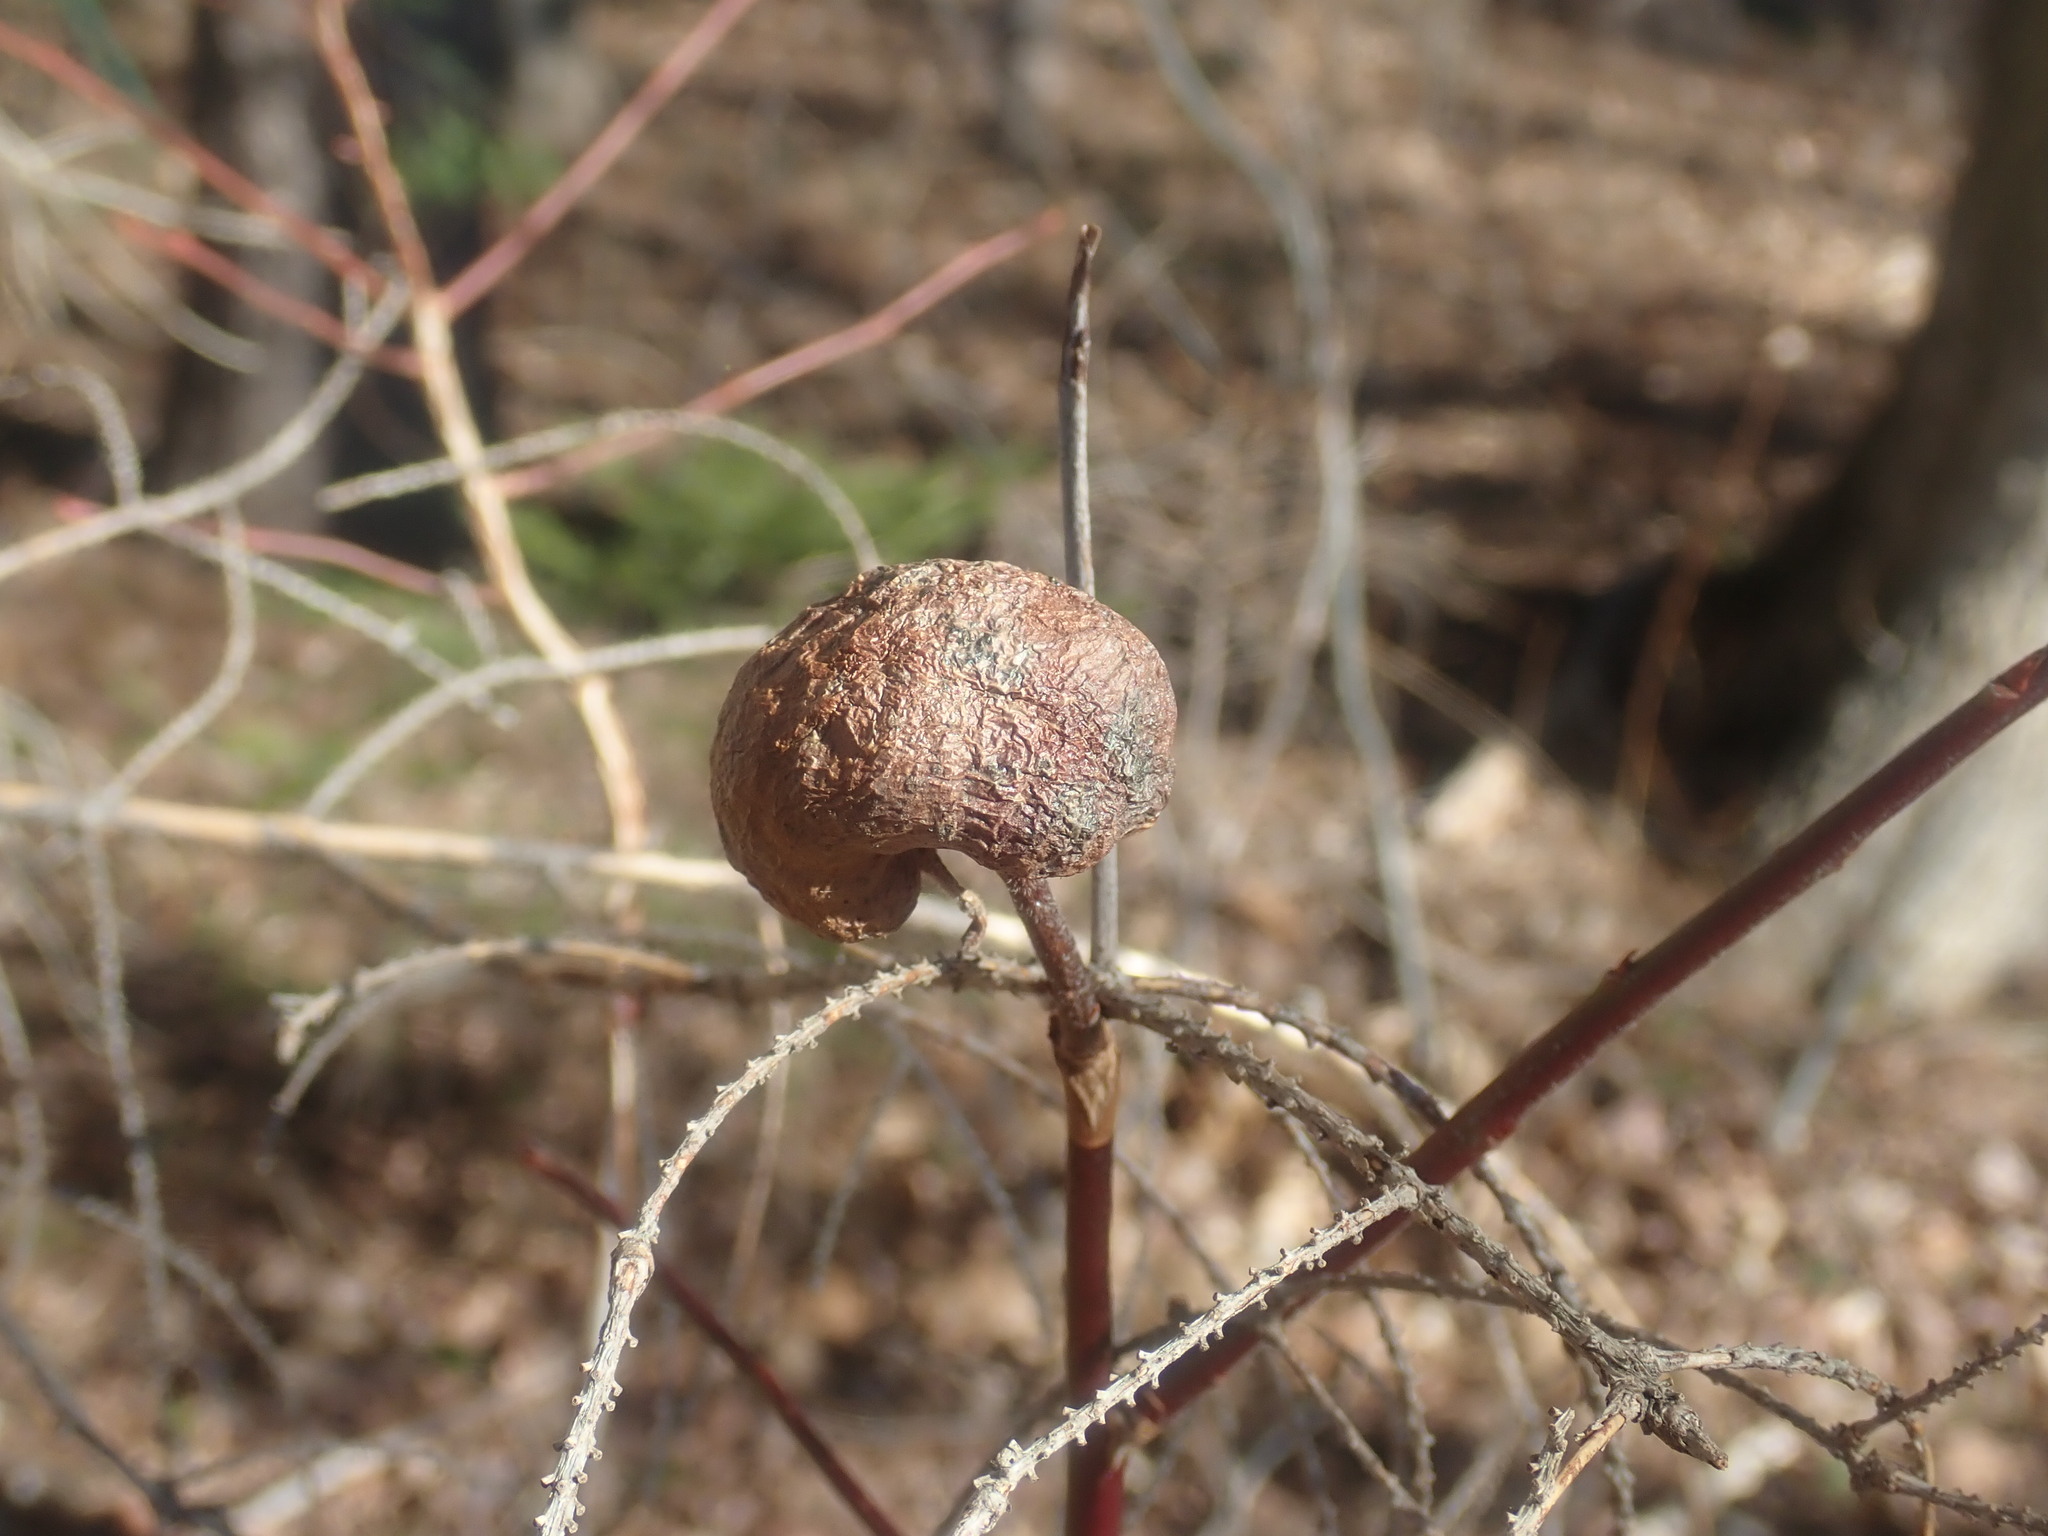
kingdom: Animalia
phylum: Arthropoda
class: Insecta
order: Hymenoptera
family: Pteromalidae
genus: Hemadas
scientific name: Hemadas nubilipennis
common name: Blueberry stem gall wasp
